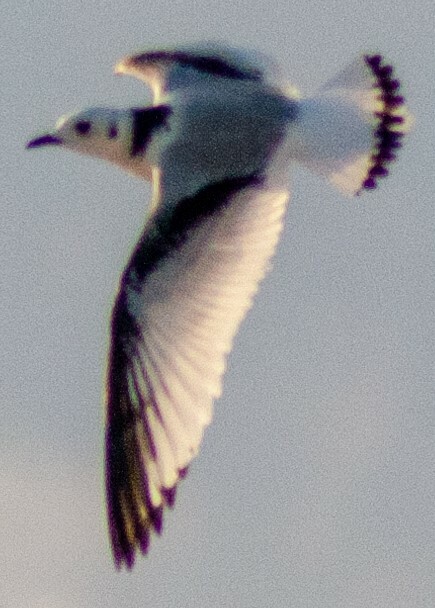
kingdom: Animalia
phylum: Chordata
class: Aves
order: Charadriiformes
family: Laridae
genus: Rissa
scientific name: Rissa tridactyla
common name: Black-legged kittiwake
